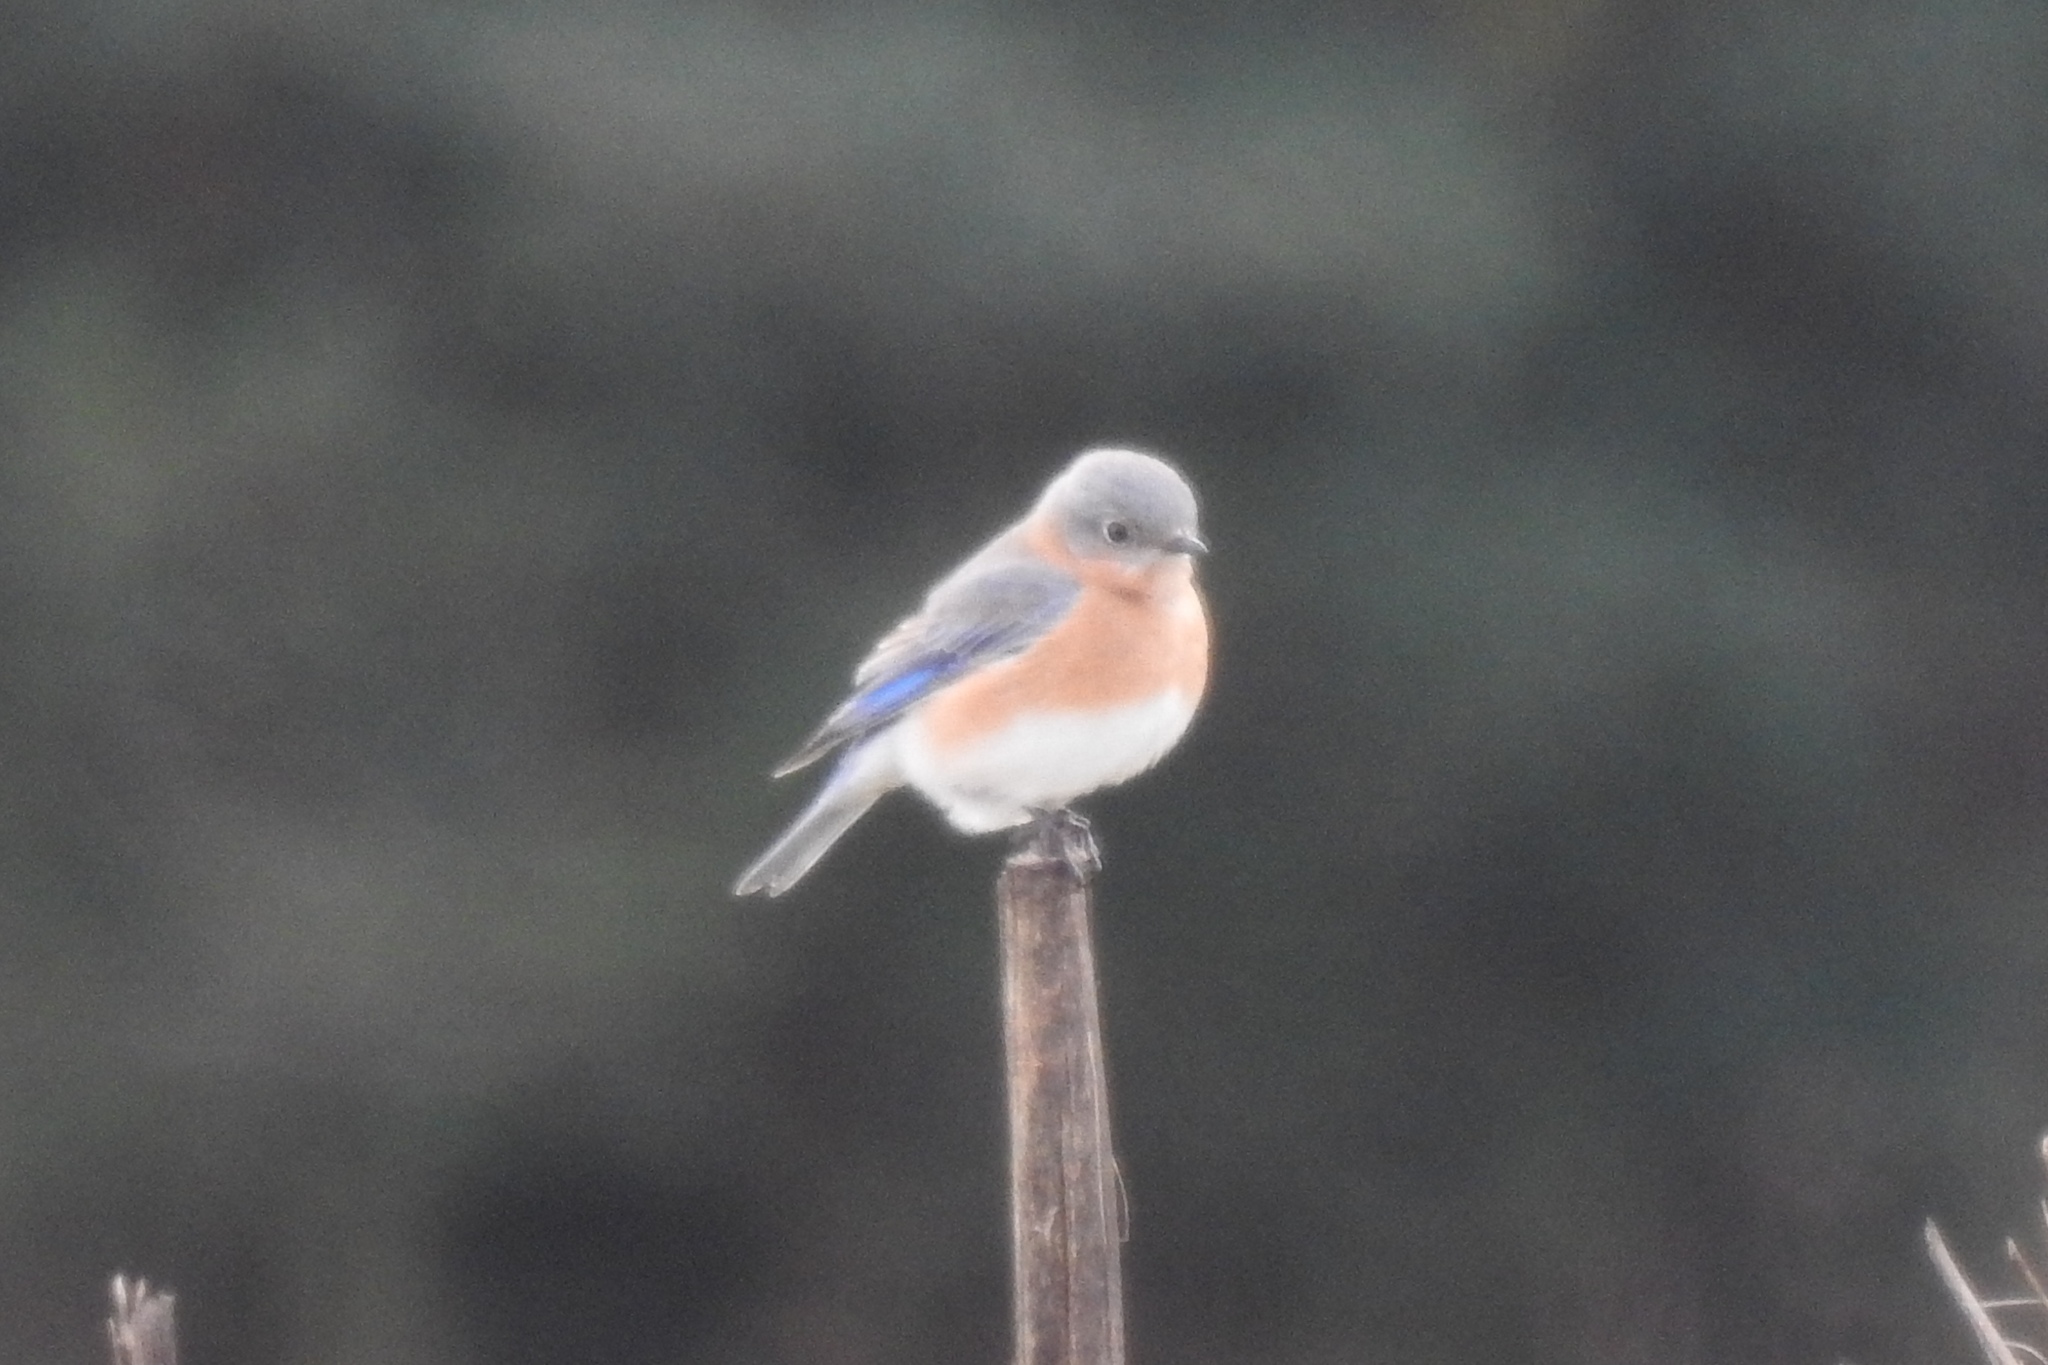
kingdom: Animalia
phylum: Chordata
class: Aves
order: Passeriformes
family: Turdidae
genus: Sialia
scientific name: Sialia sialis
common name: Eastern bluebird
